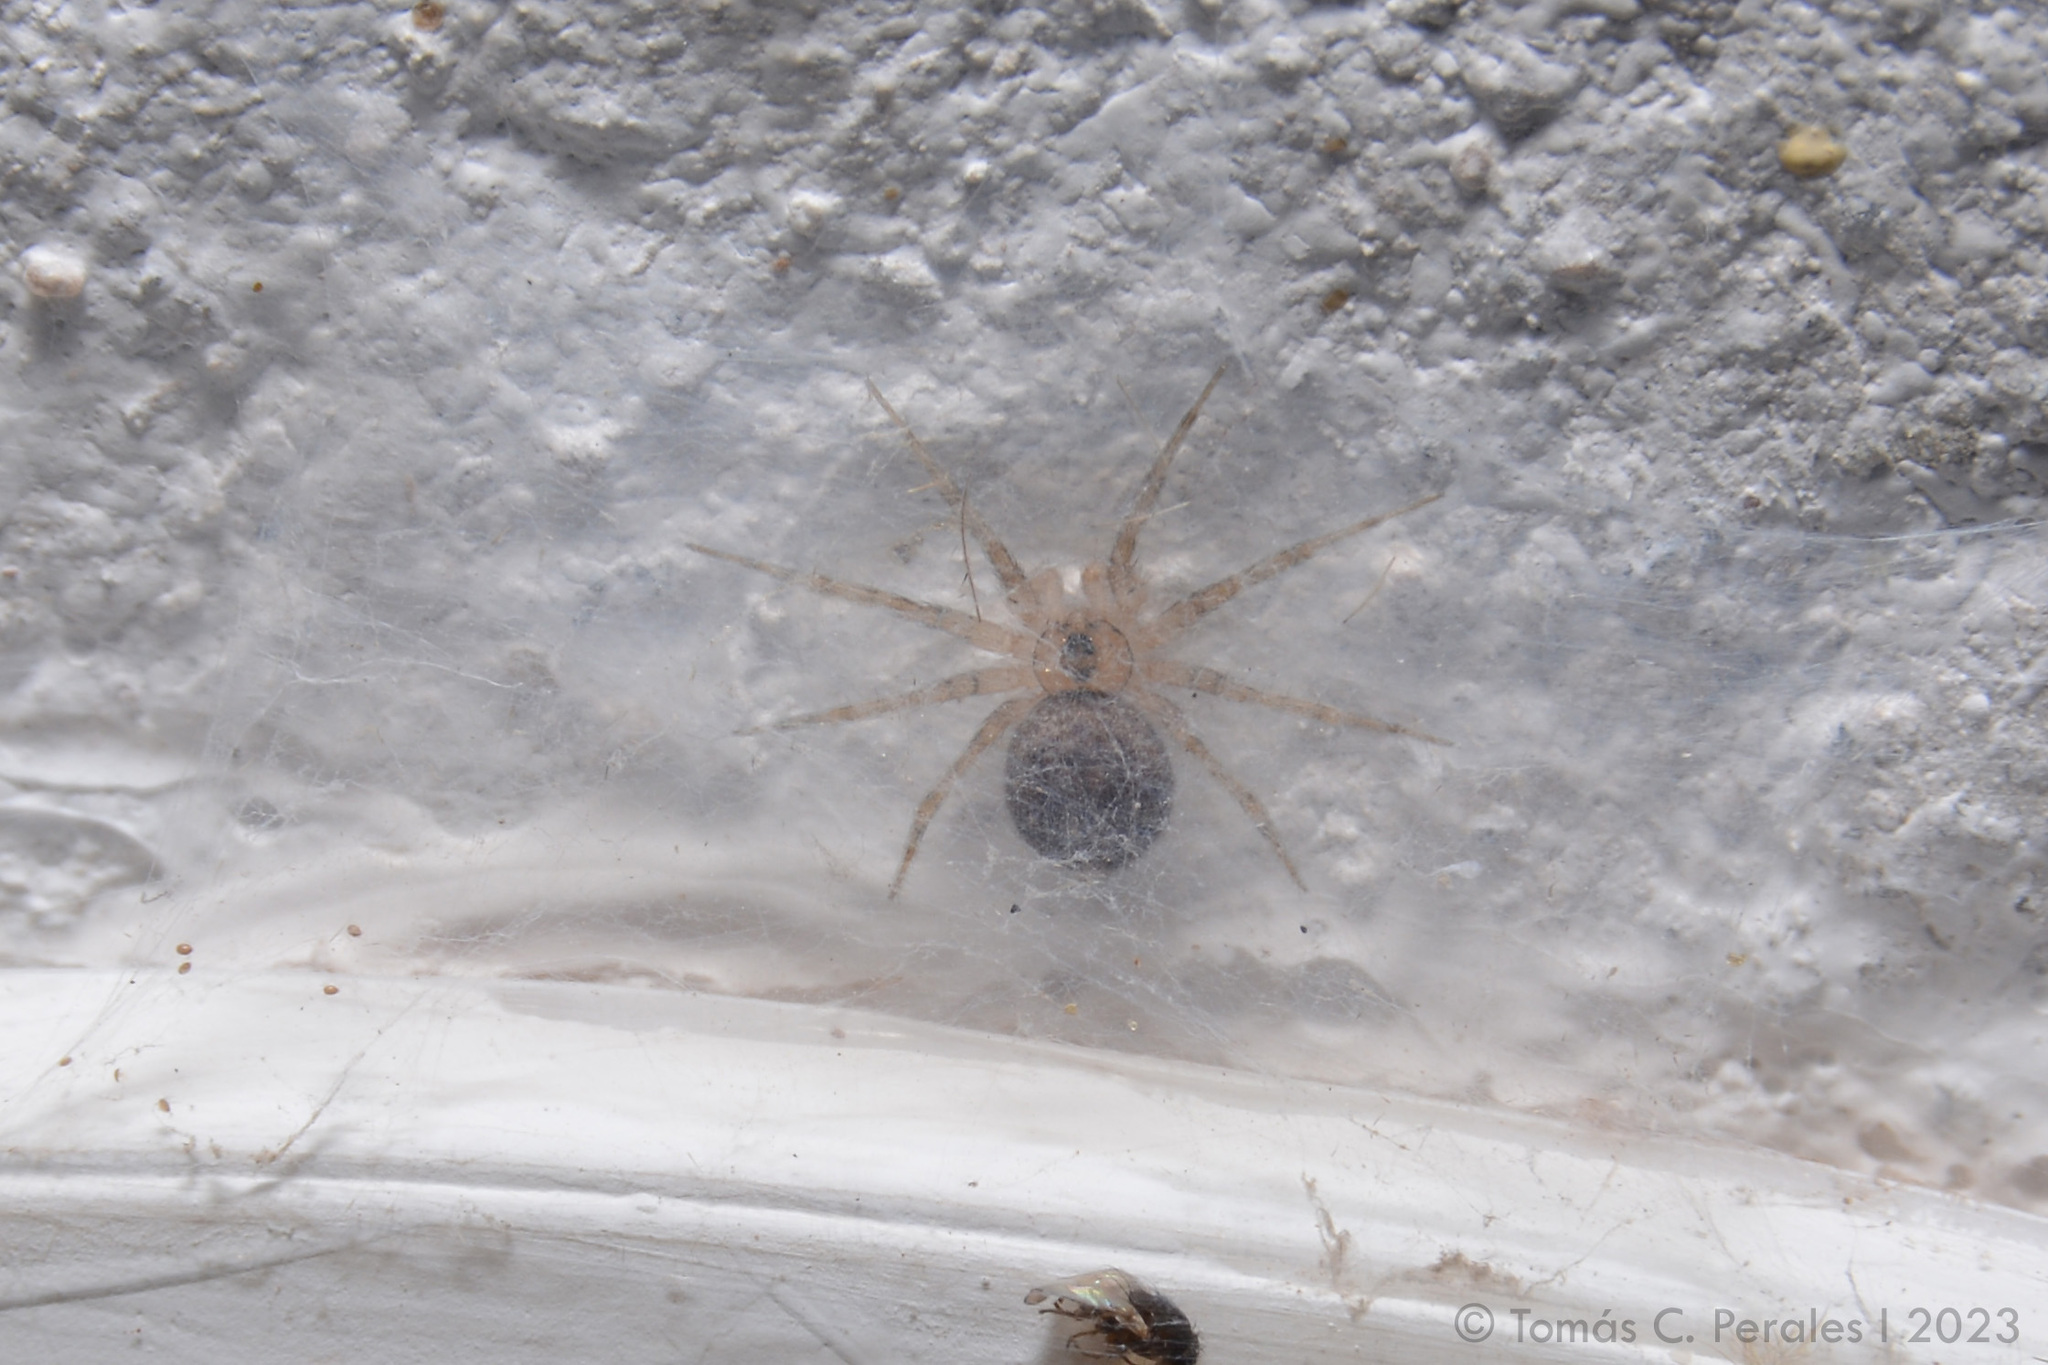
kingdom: Animalia
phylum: Arthropoda
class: Arachnida
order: Araneae
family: Oecobiidae
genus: Oecobius
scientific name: Oecobius navus
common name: Flatmesh weaver
